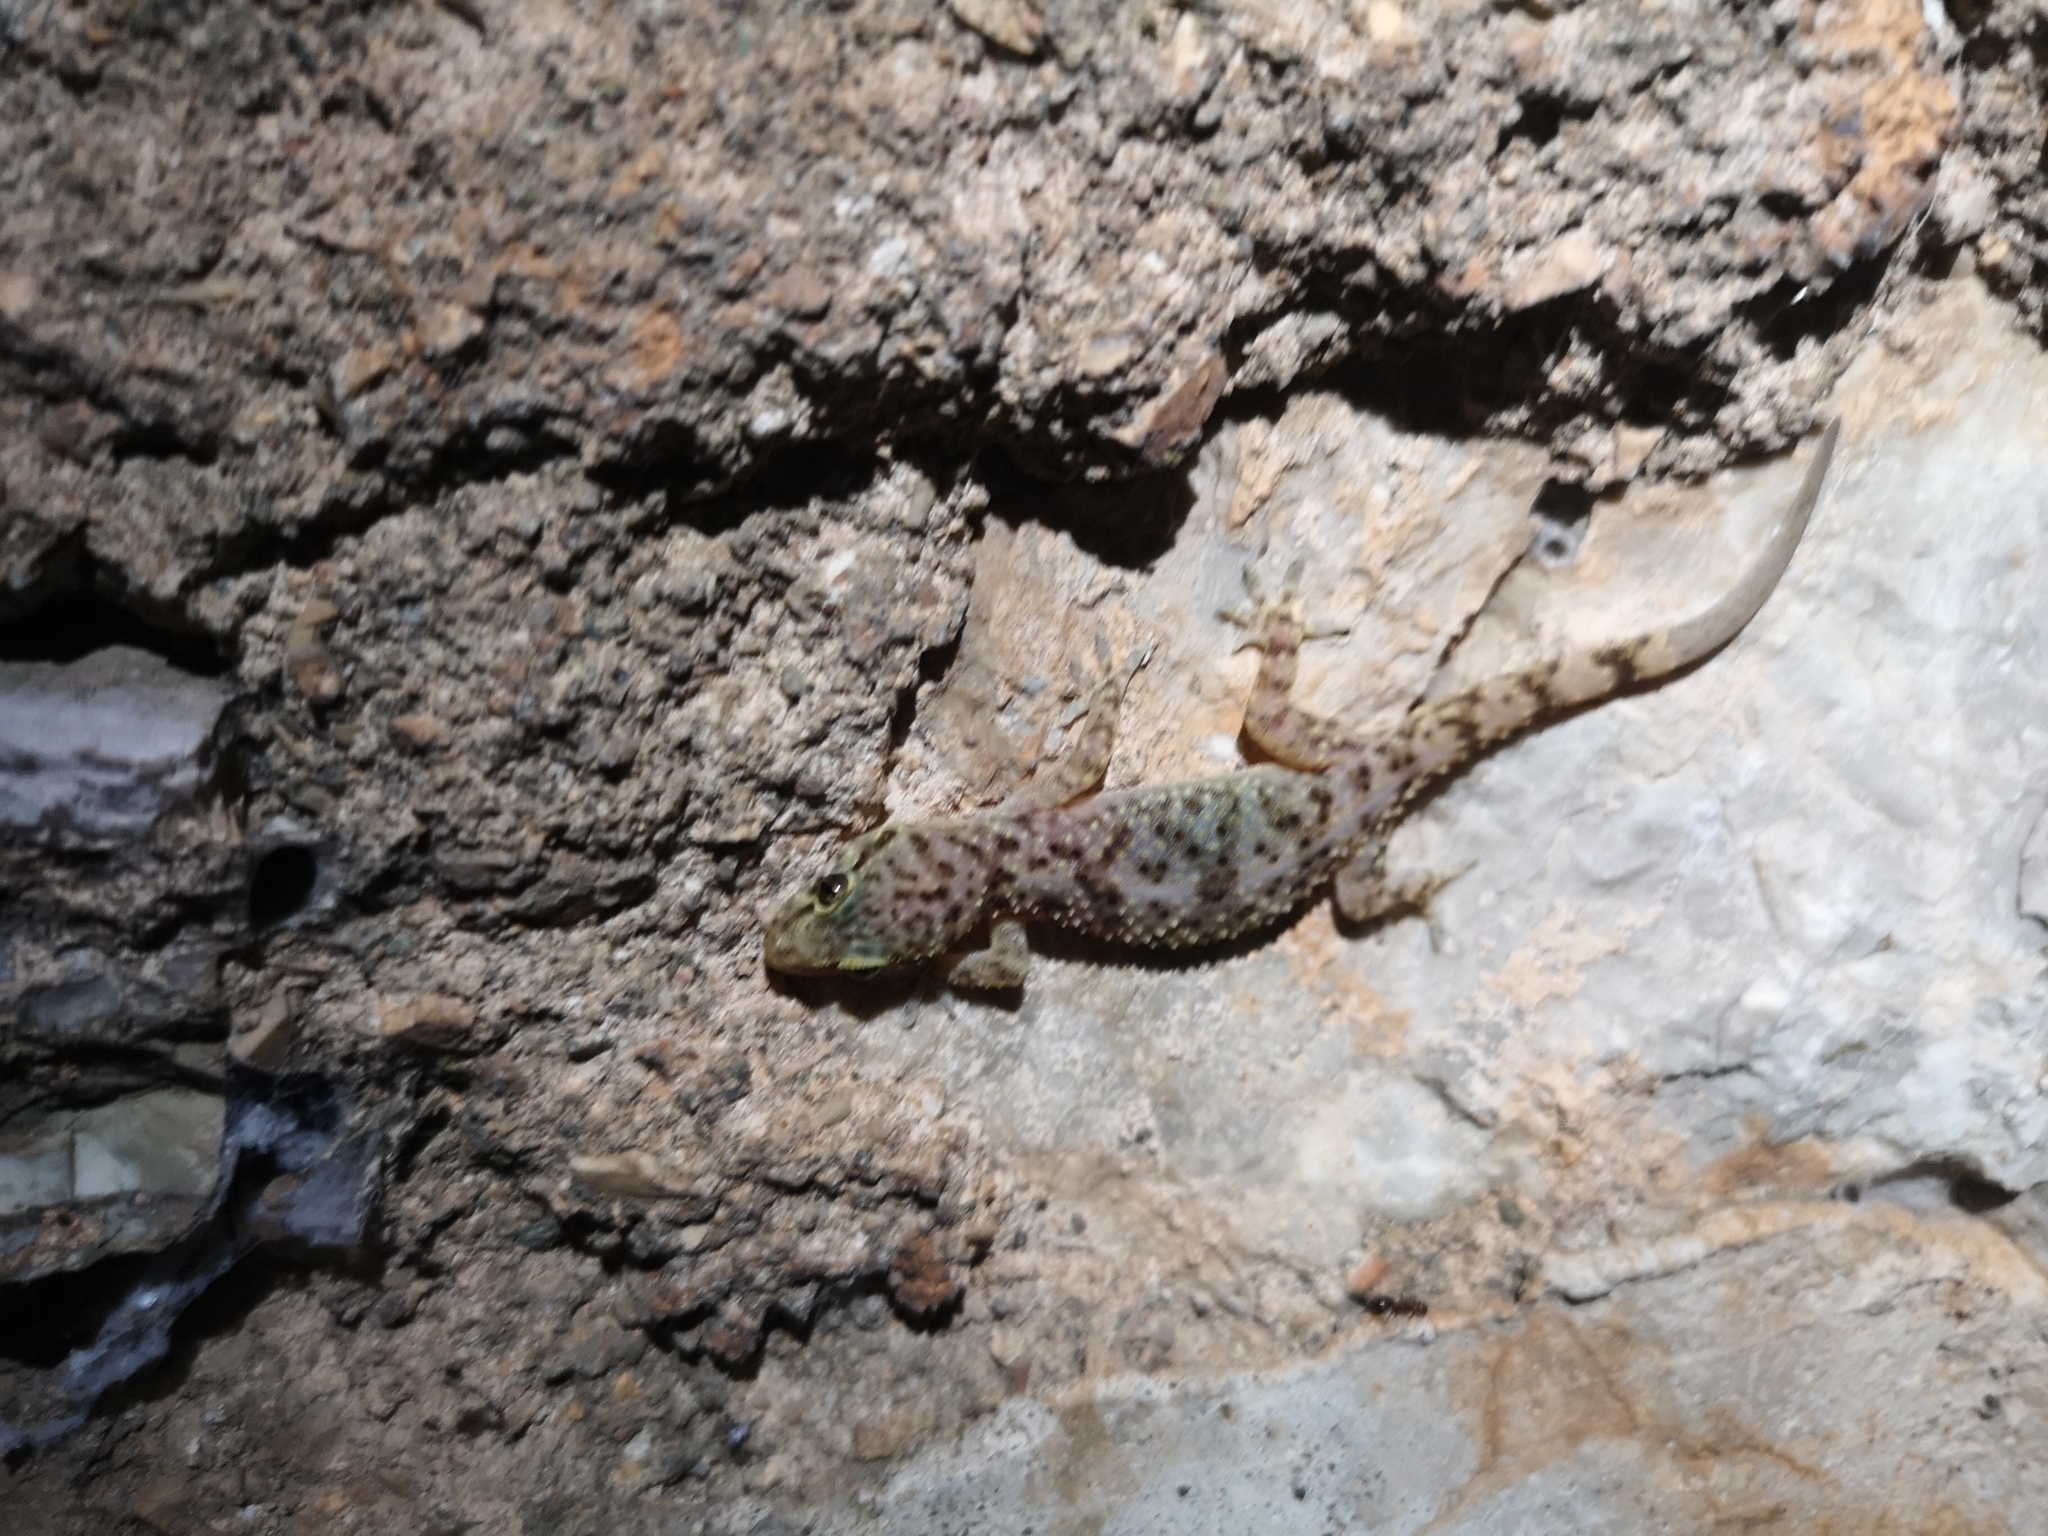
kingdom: Animalia
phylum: Chordata
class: Squamata
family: Gekkonidae
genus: Hemidactylus
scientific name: Hemidactylus turcicus
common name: Turkish gecko
